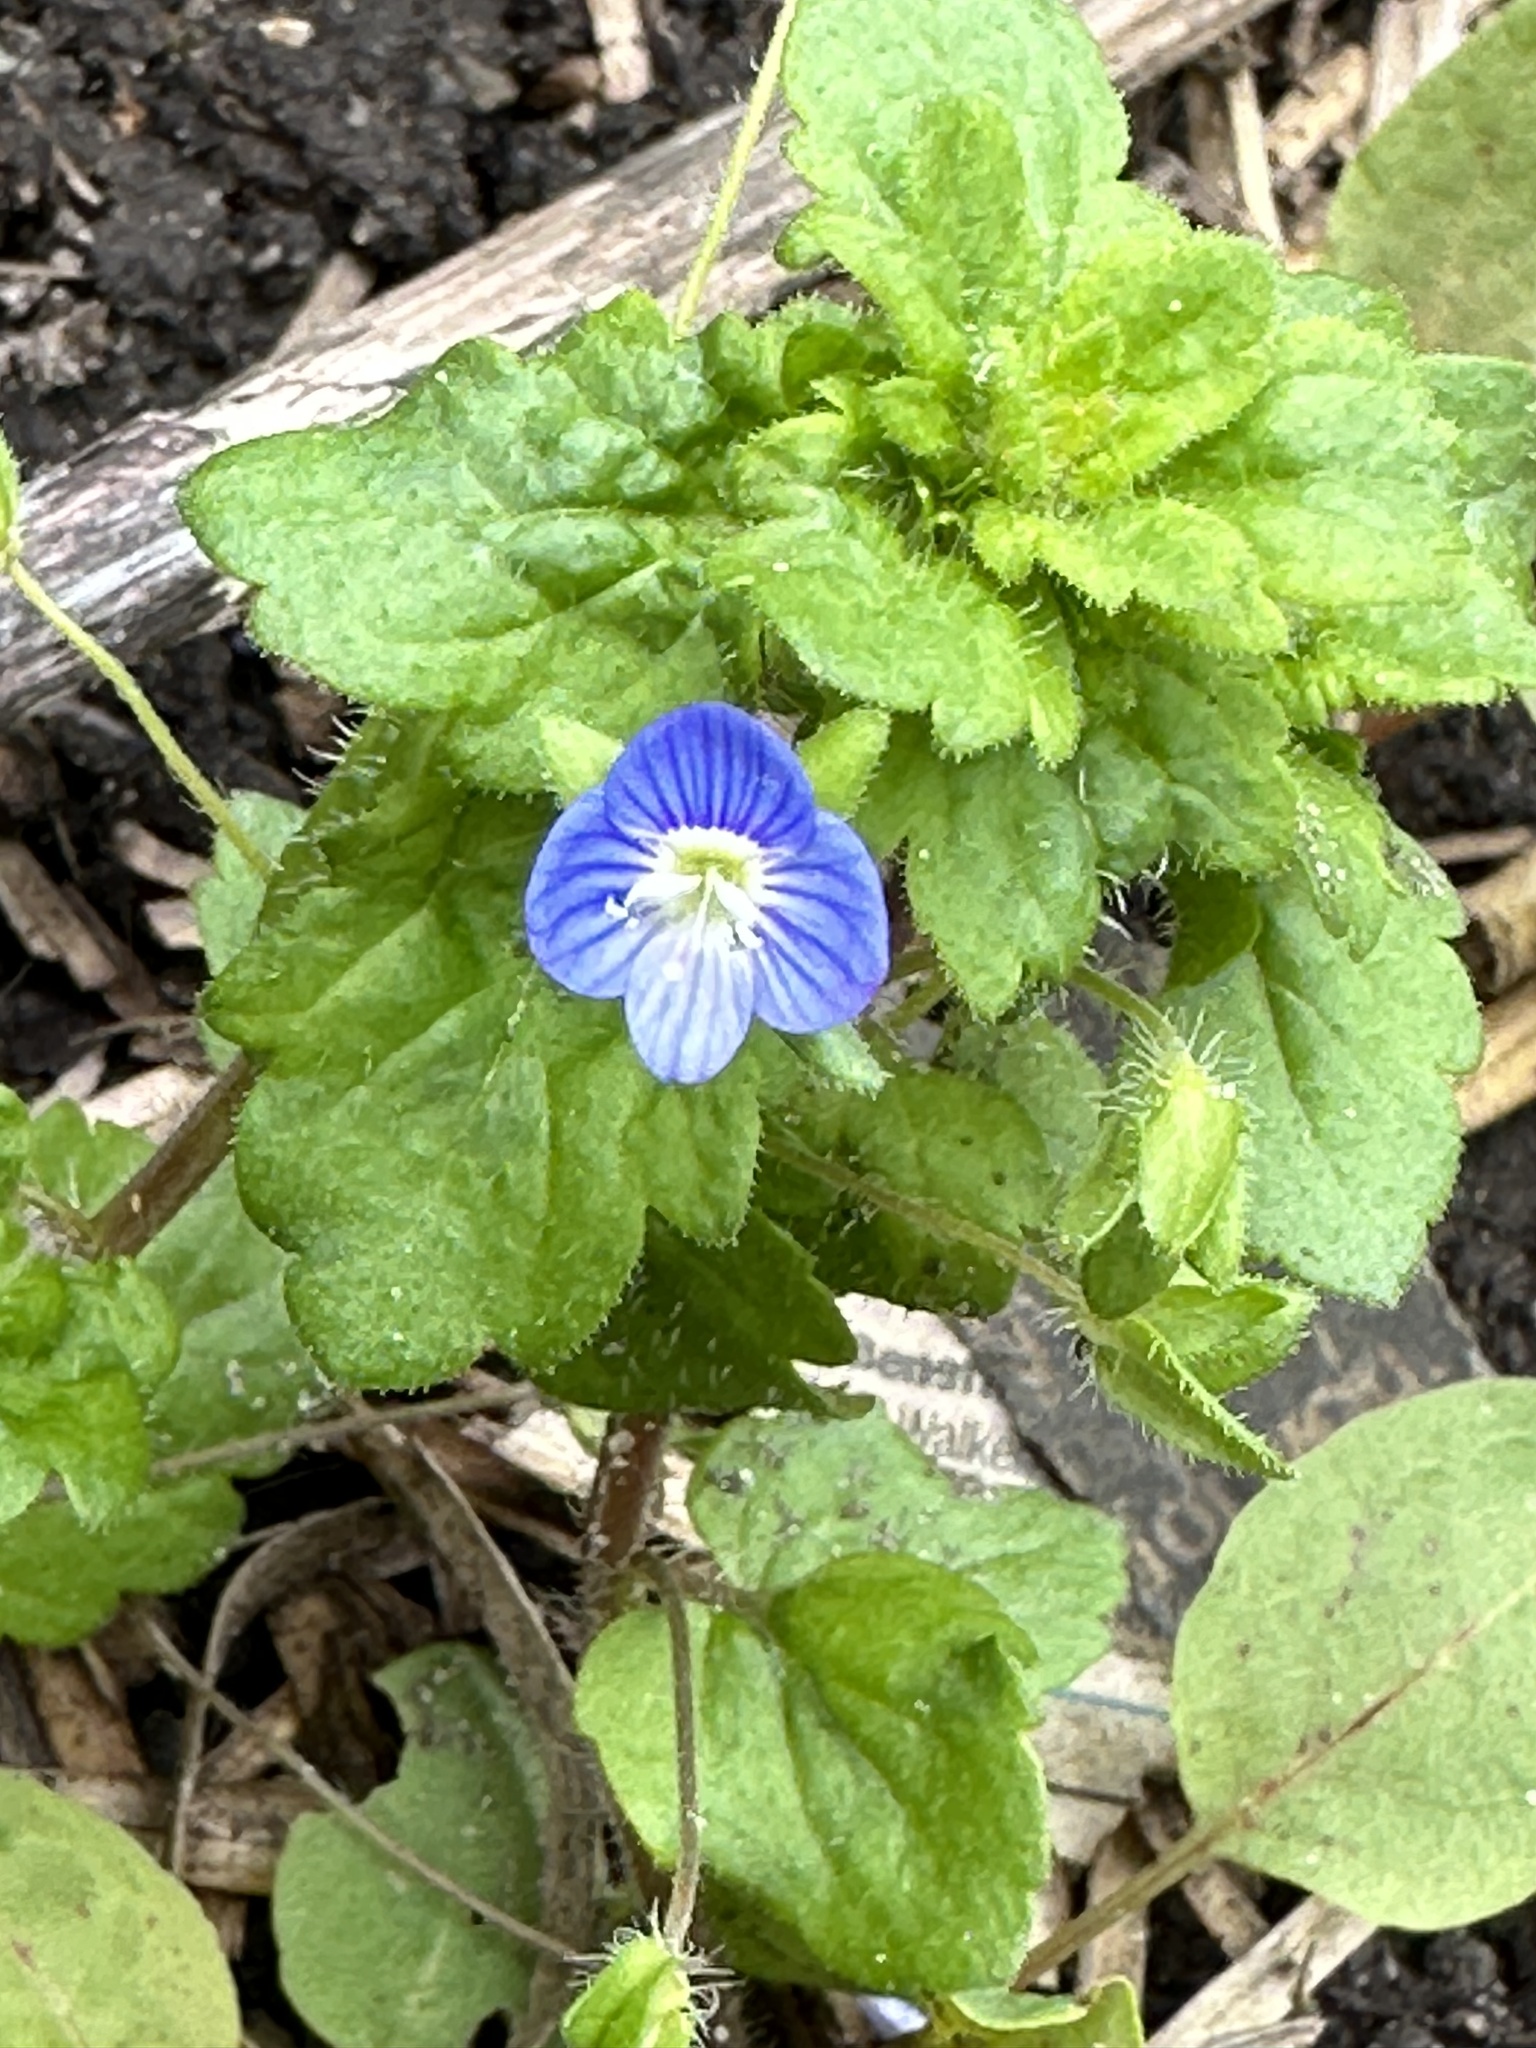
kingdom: Plantae
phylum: Tracheophyta
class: Magnoliopsida
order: Lamiales
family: Plantaginaceae
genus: Veronica
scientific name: Veronica persica
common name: Common field-speedwell
